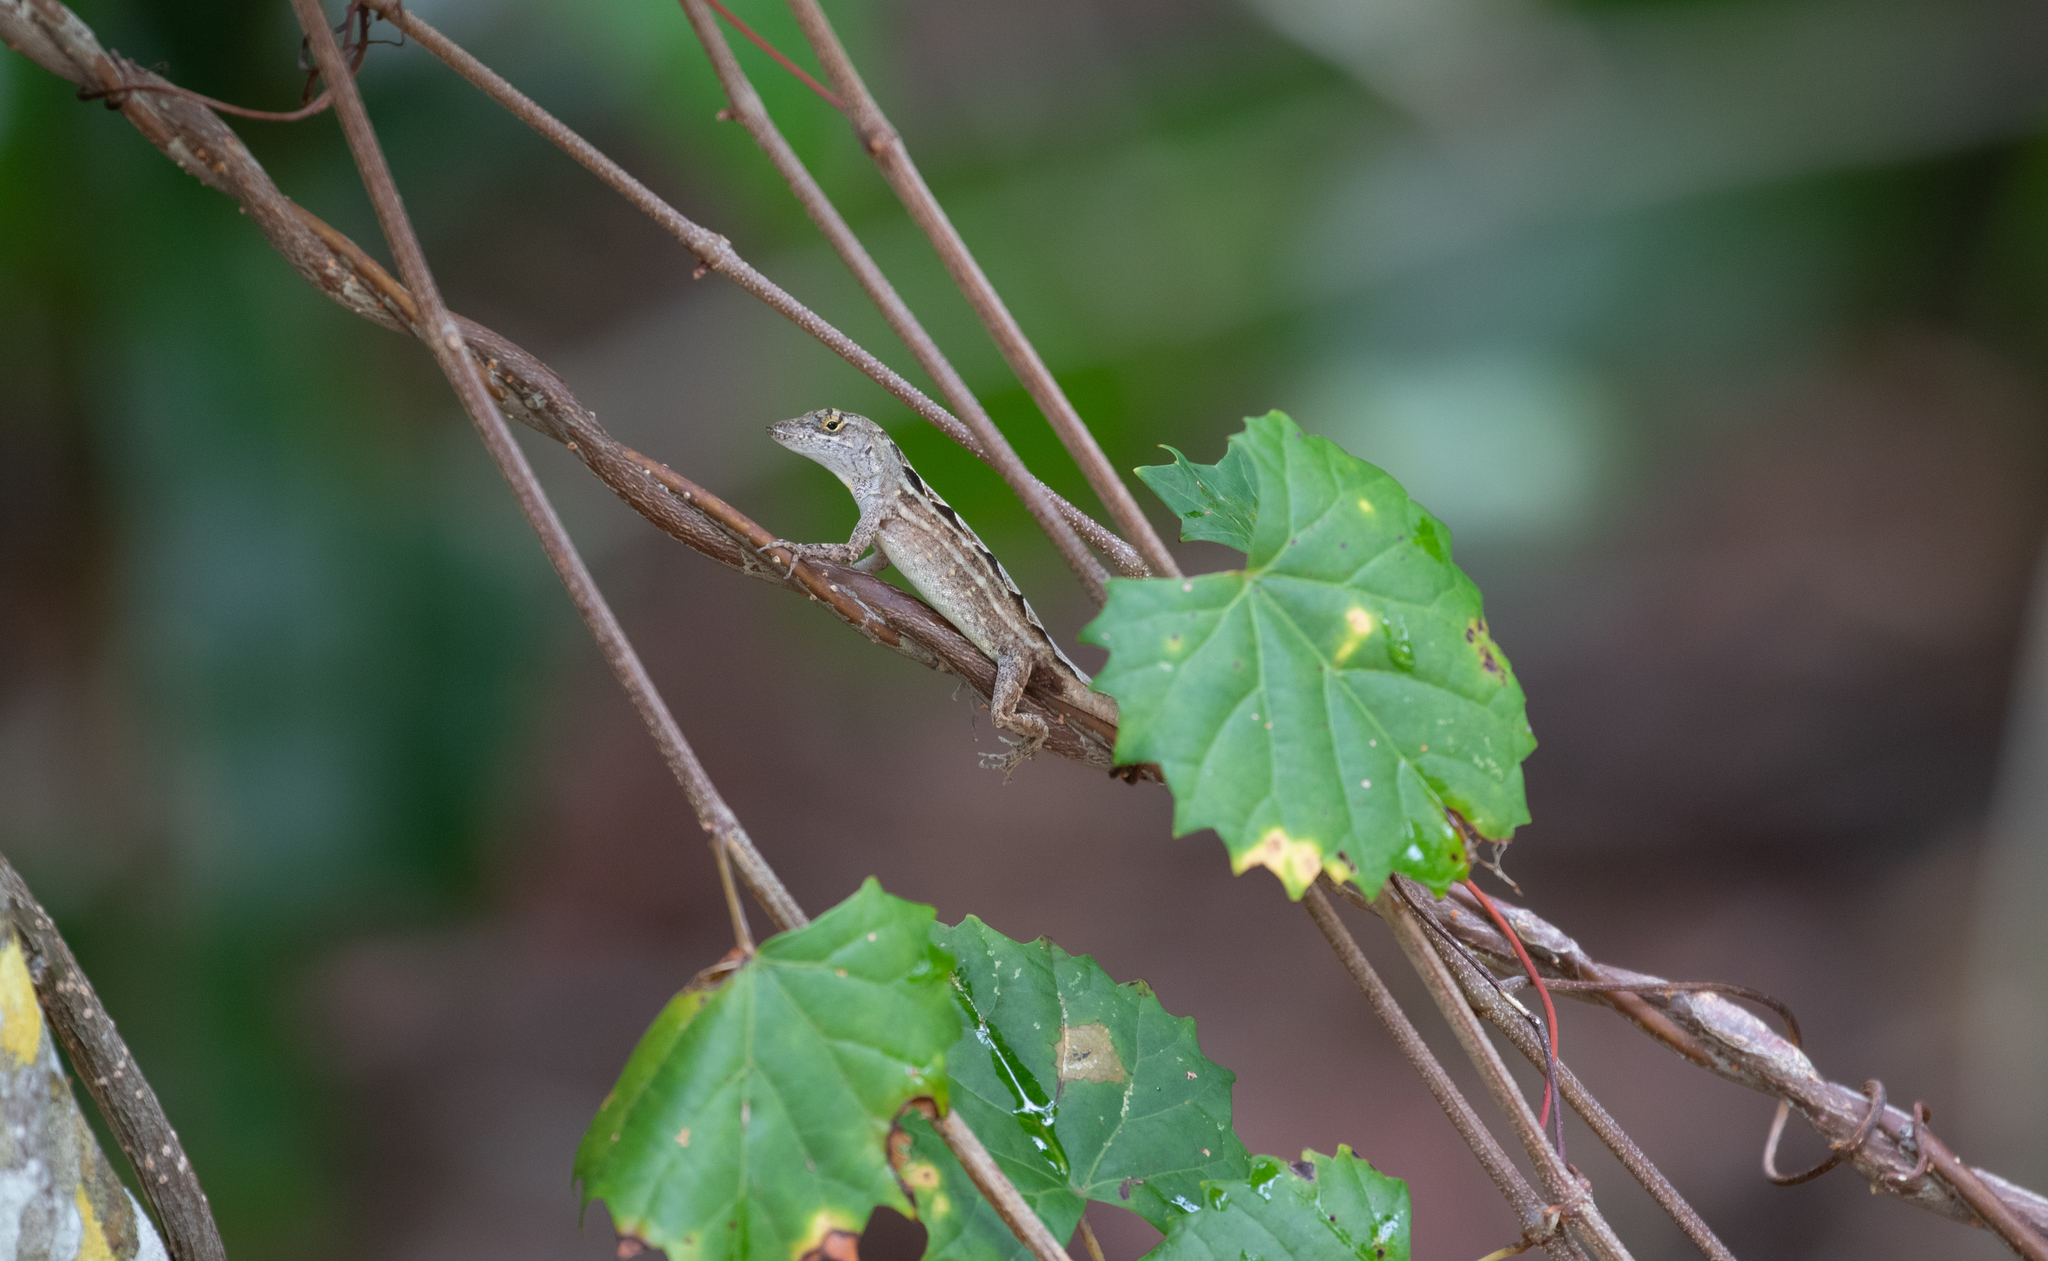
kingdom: Animalia
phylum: Chordata
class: Squamata
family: Dactyloidae
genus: Anolis
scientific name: Anolis sagrei
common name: Brown anole
